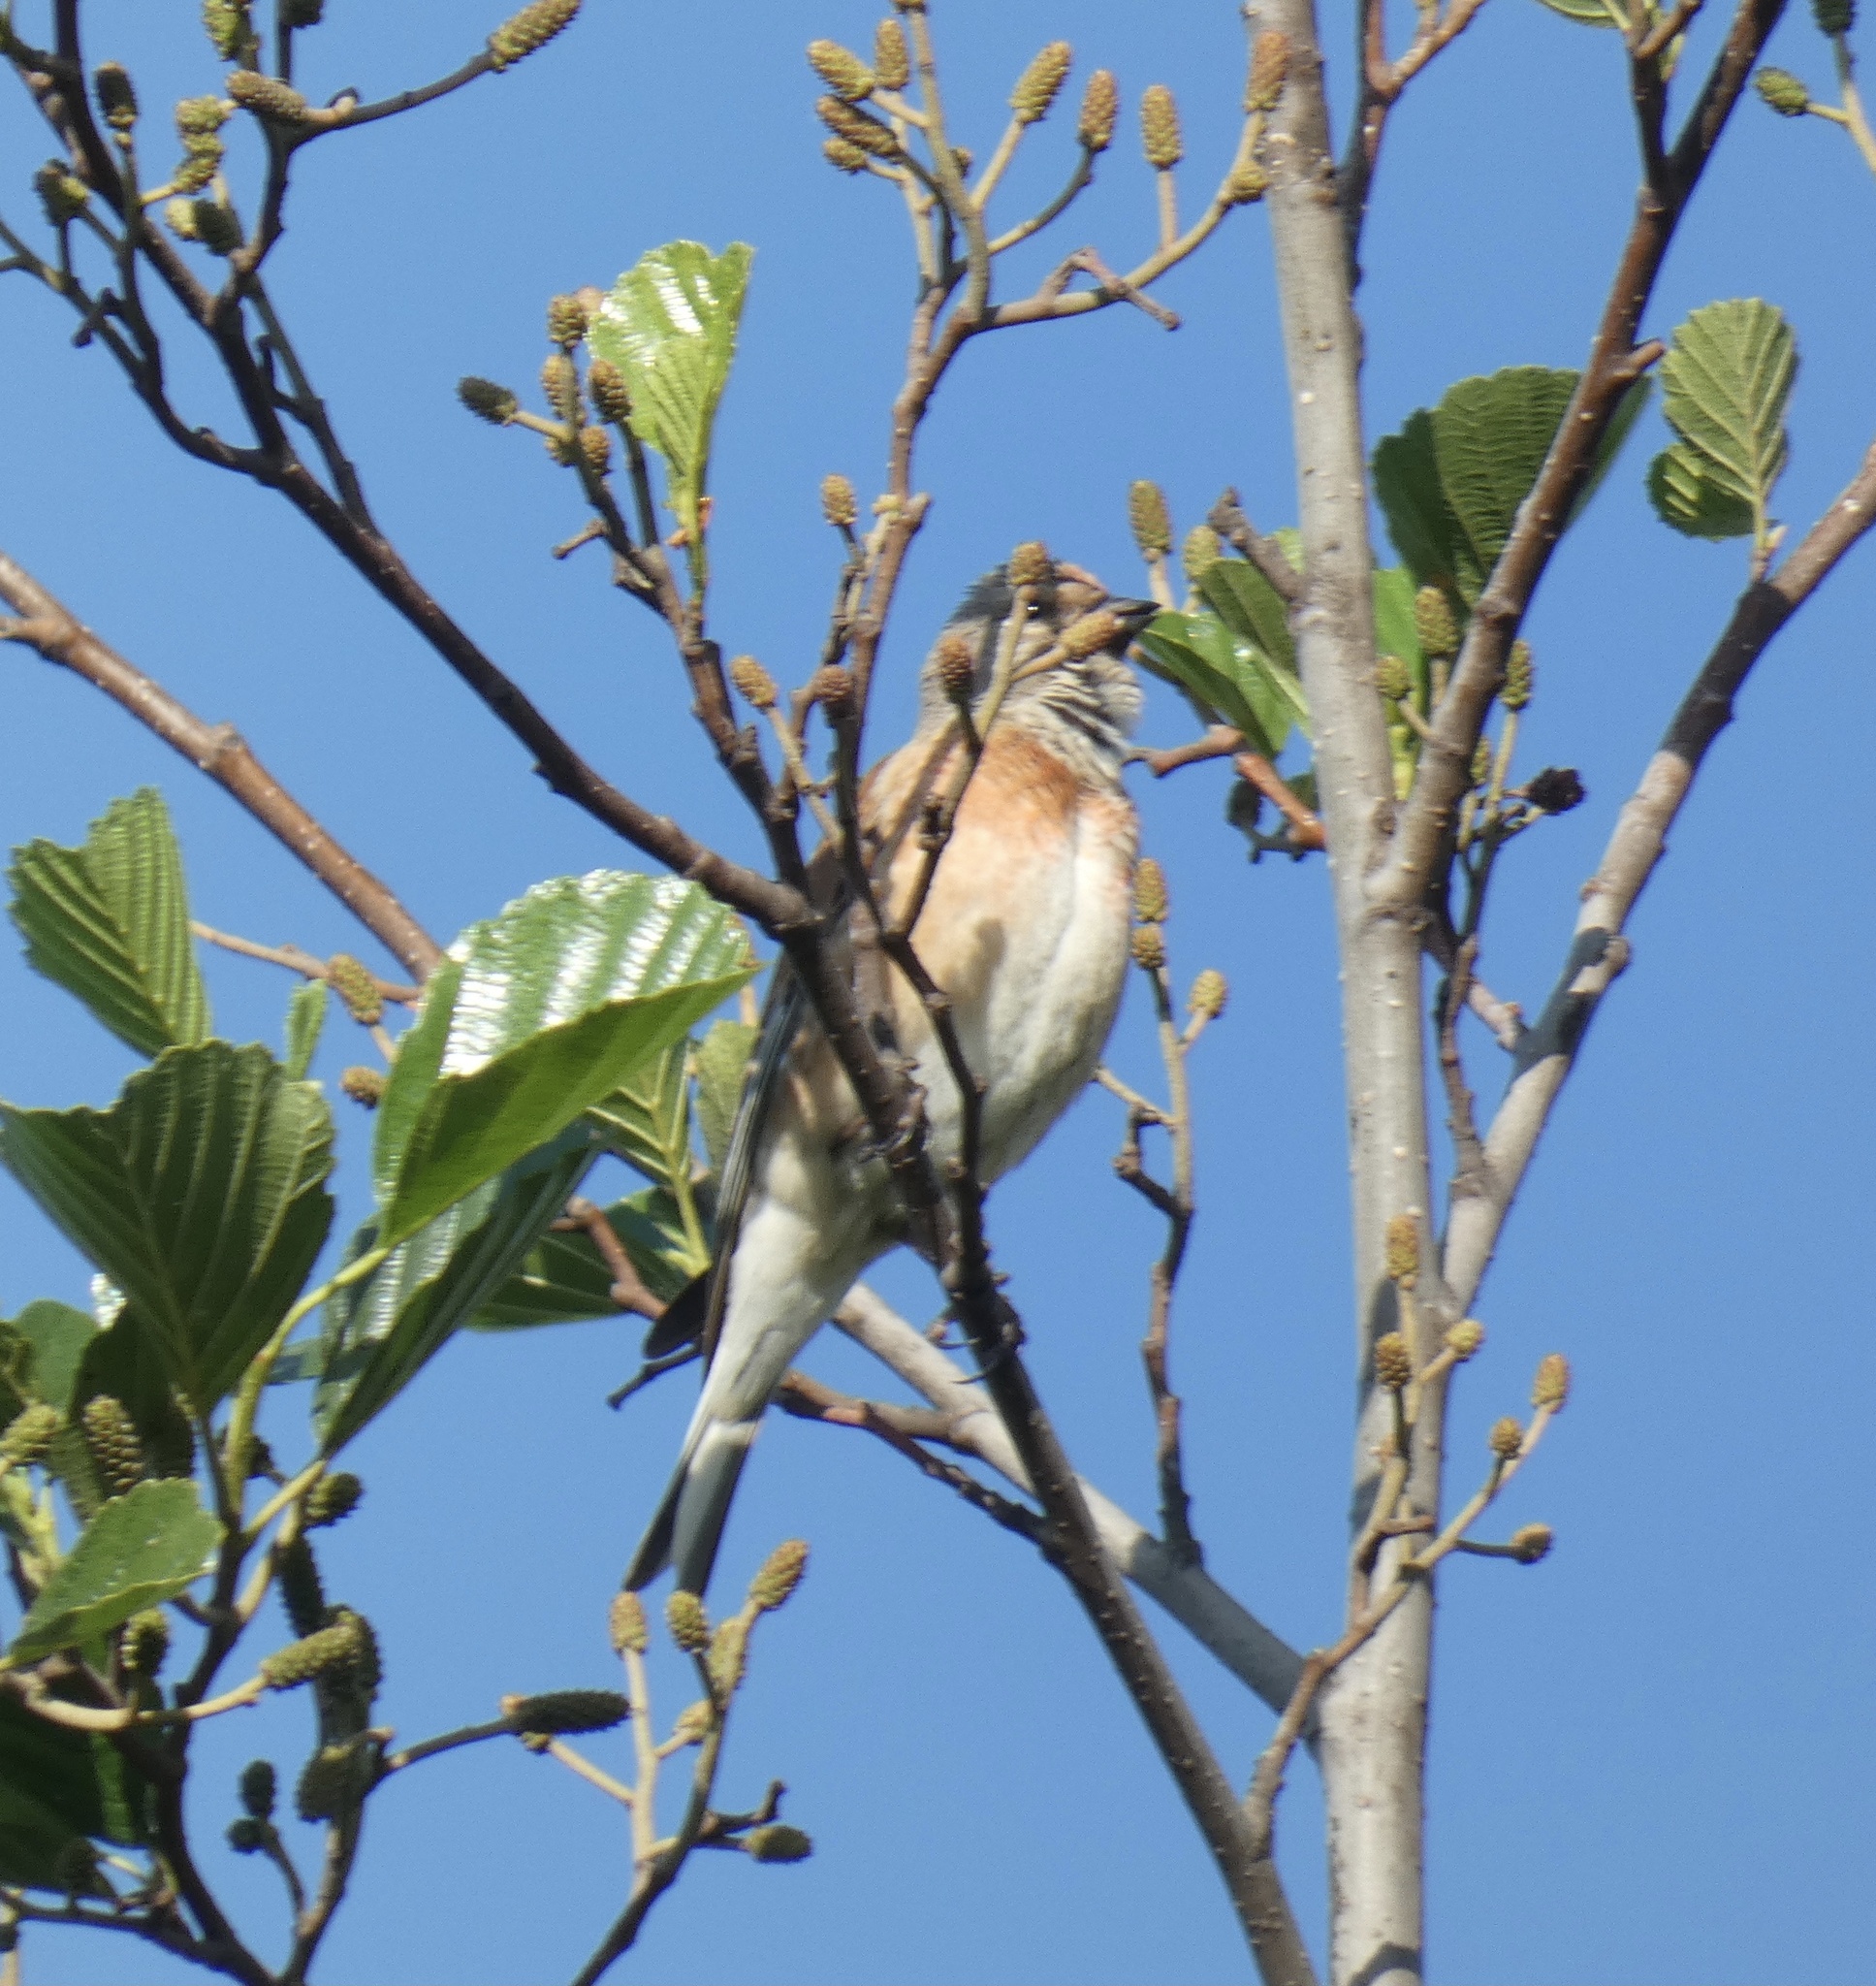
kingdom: Animalia
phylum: Chordata
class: Aves
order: Passeriformes
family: Fringillidae
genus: Linaria
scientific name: Linaria cannabina
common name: Common linnet
